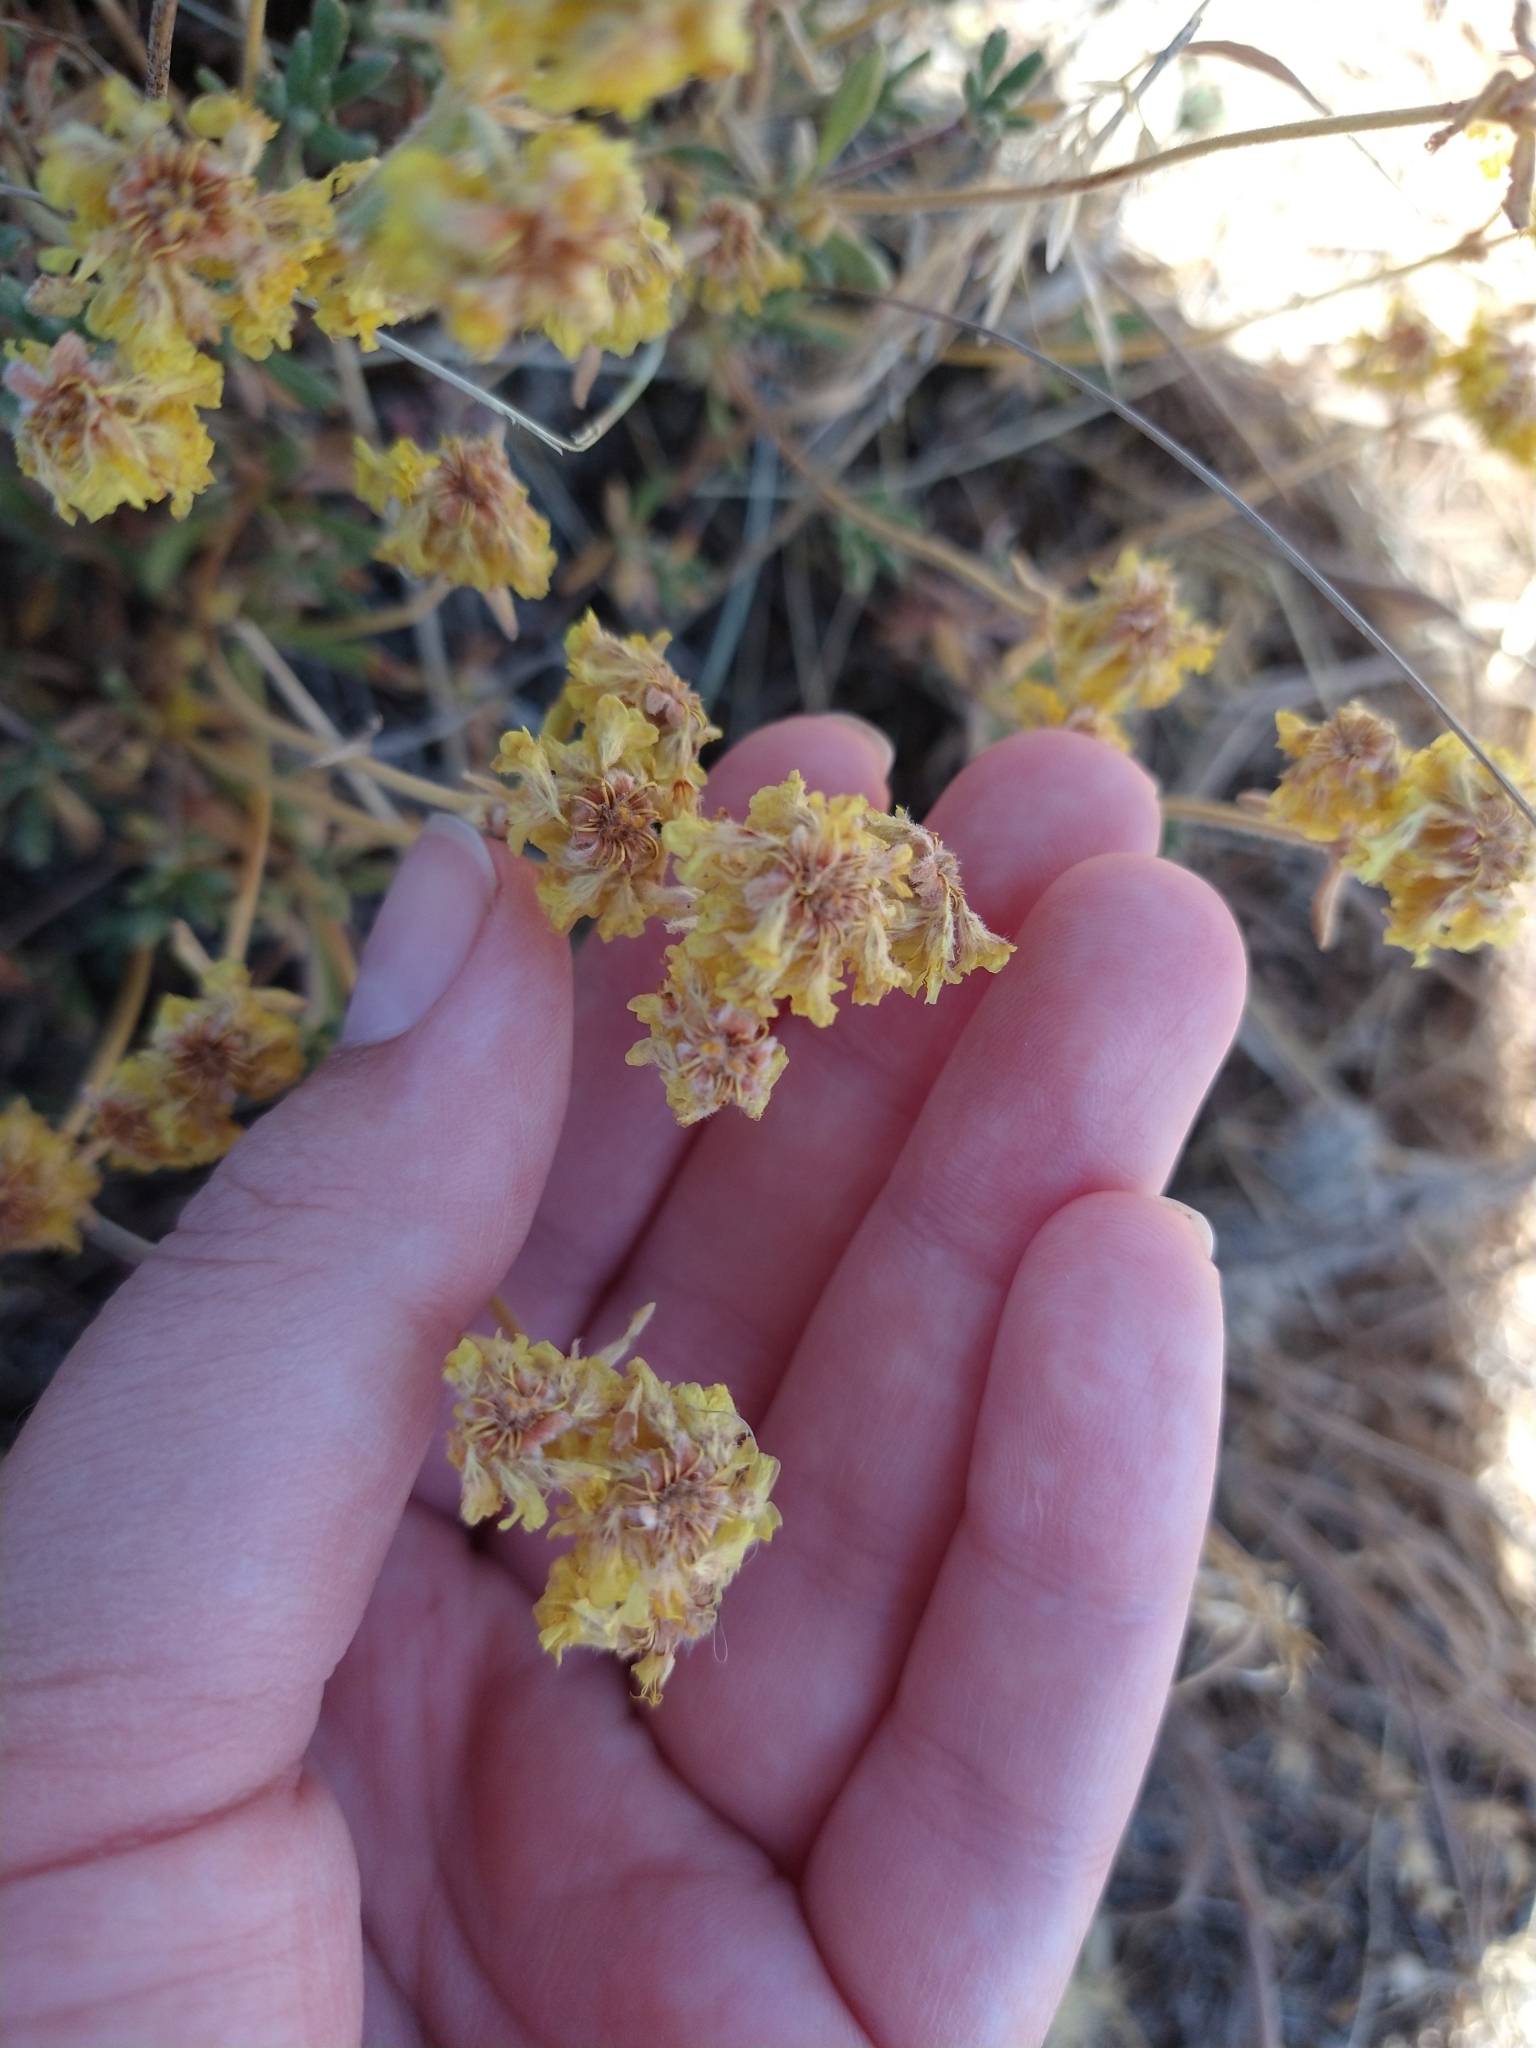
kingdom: Plantae
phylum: Tracheophyta
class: Magnoliopsida
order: Caryophyllales
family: Polygonaceae
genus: Eriogonum
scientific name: Eriogonum sphaerocephalum
